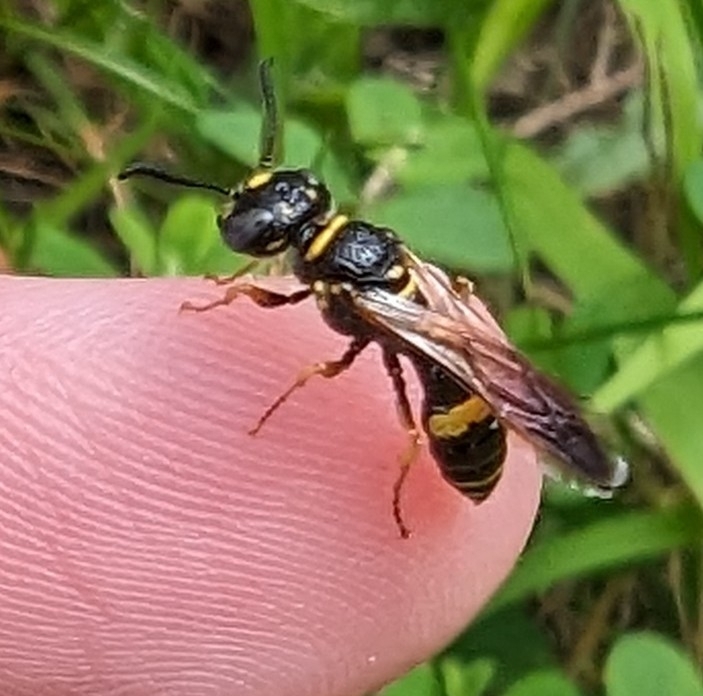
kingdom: Animalia
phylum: Arthropoda
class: Insecta
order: Hymenoptera
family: Crabronidae
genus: Philanthus
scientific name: Philanthus gibbosus
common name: Humped beewolf
